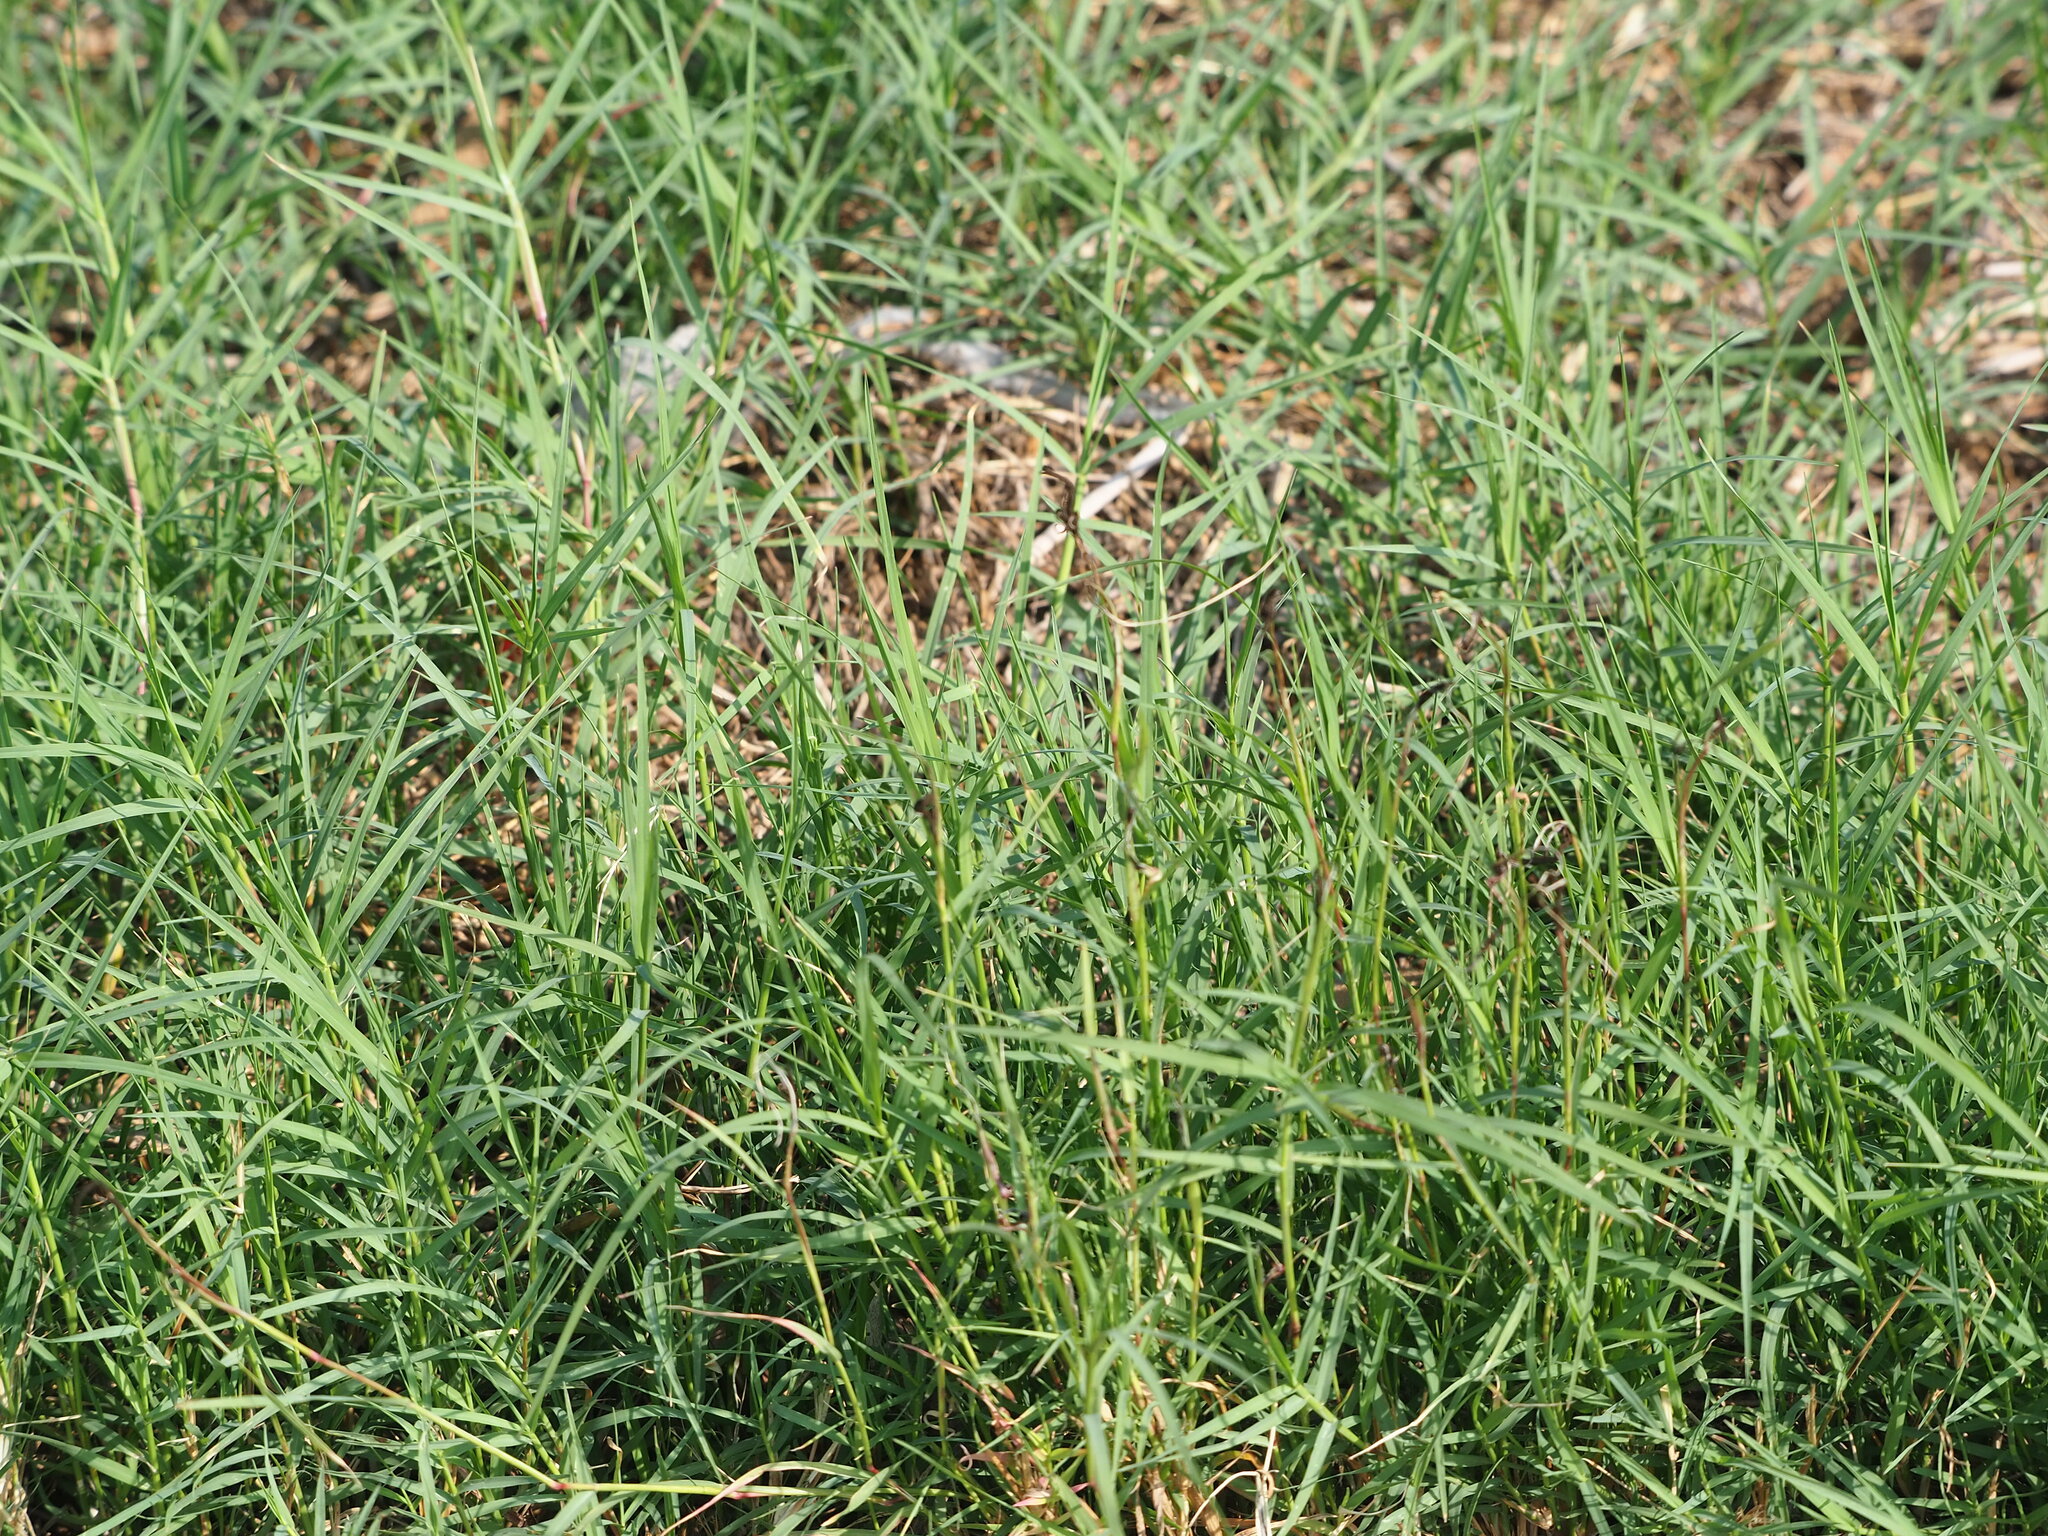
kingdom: Plantae
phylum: Tracheophyta
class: Liliopsida
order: Poales
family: Poaceae
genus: Cynodon
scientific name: Cynodon dactylon
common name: Bermuda grass
